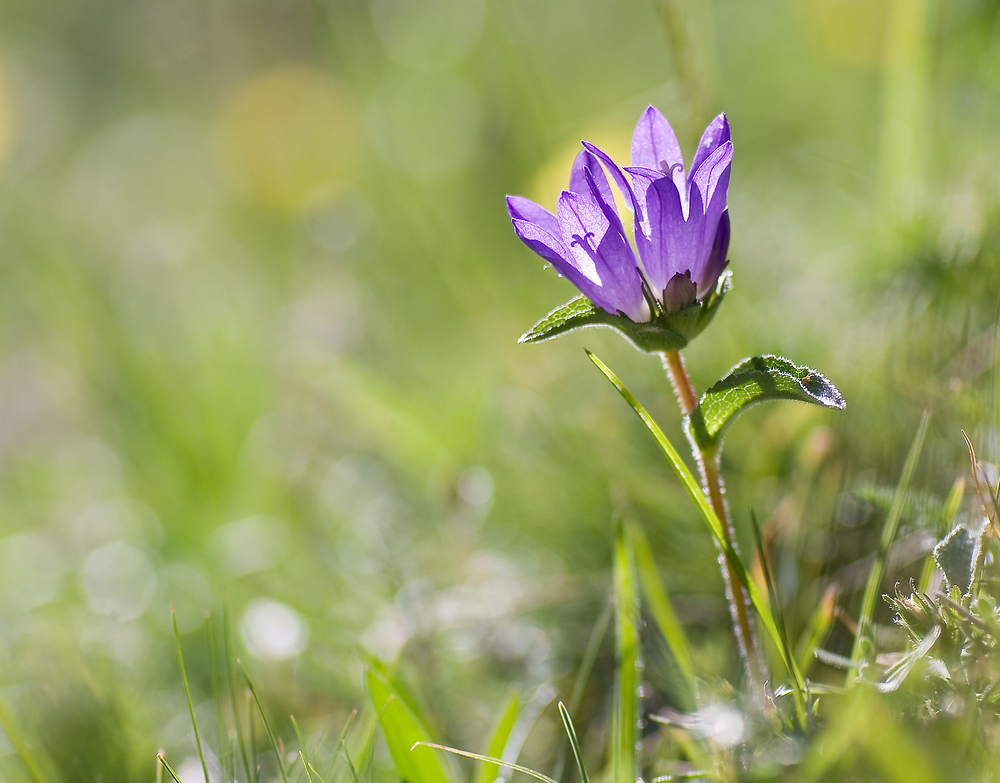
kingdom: Plantae
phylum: Tracheophyta
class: Magnoliopsida
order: Asterales
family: Campanulaceae
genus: Campanula
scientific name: Campanula glomerata
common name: Clustered bellflower
